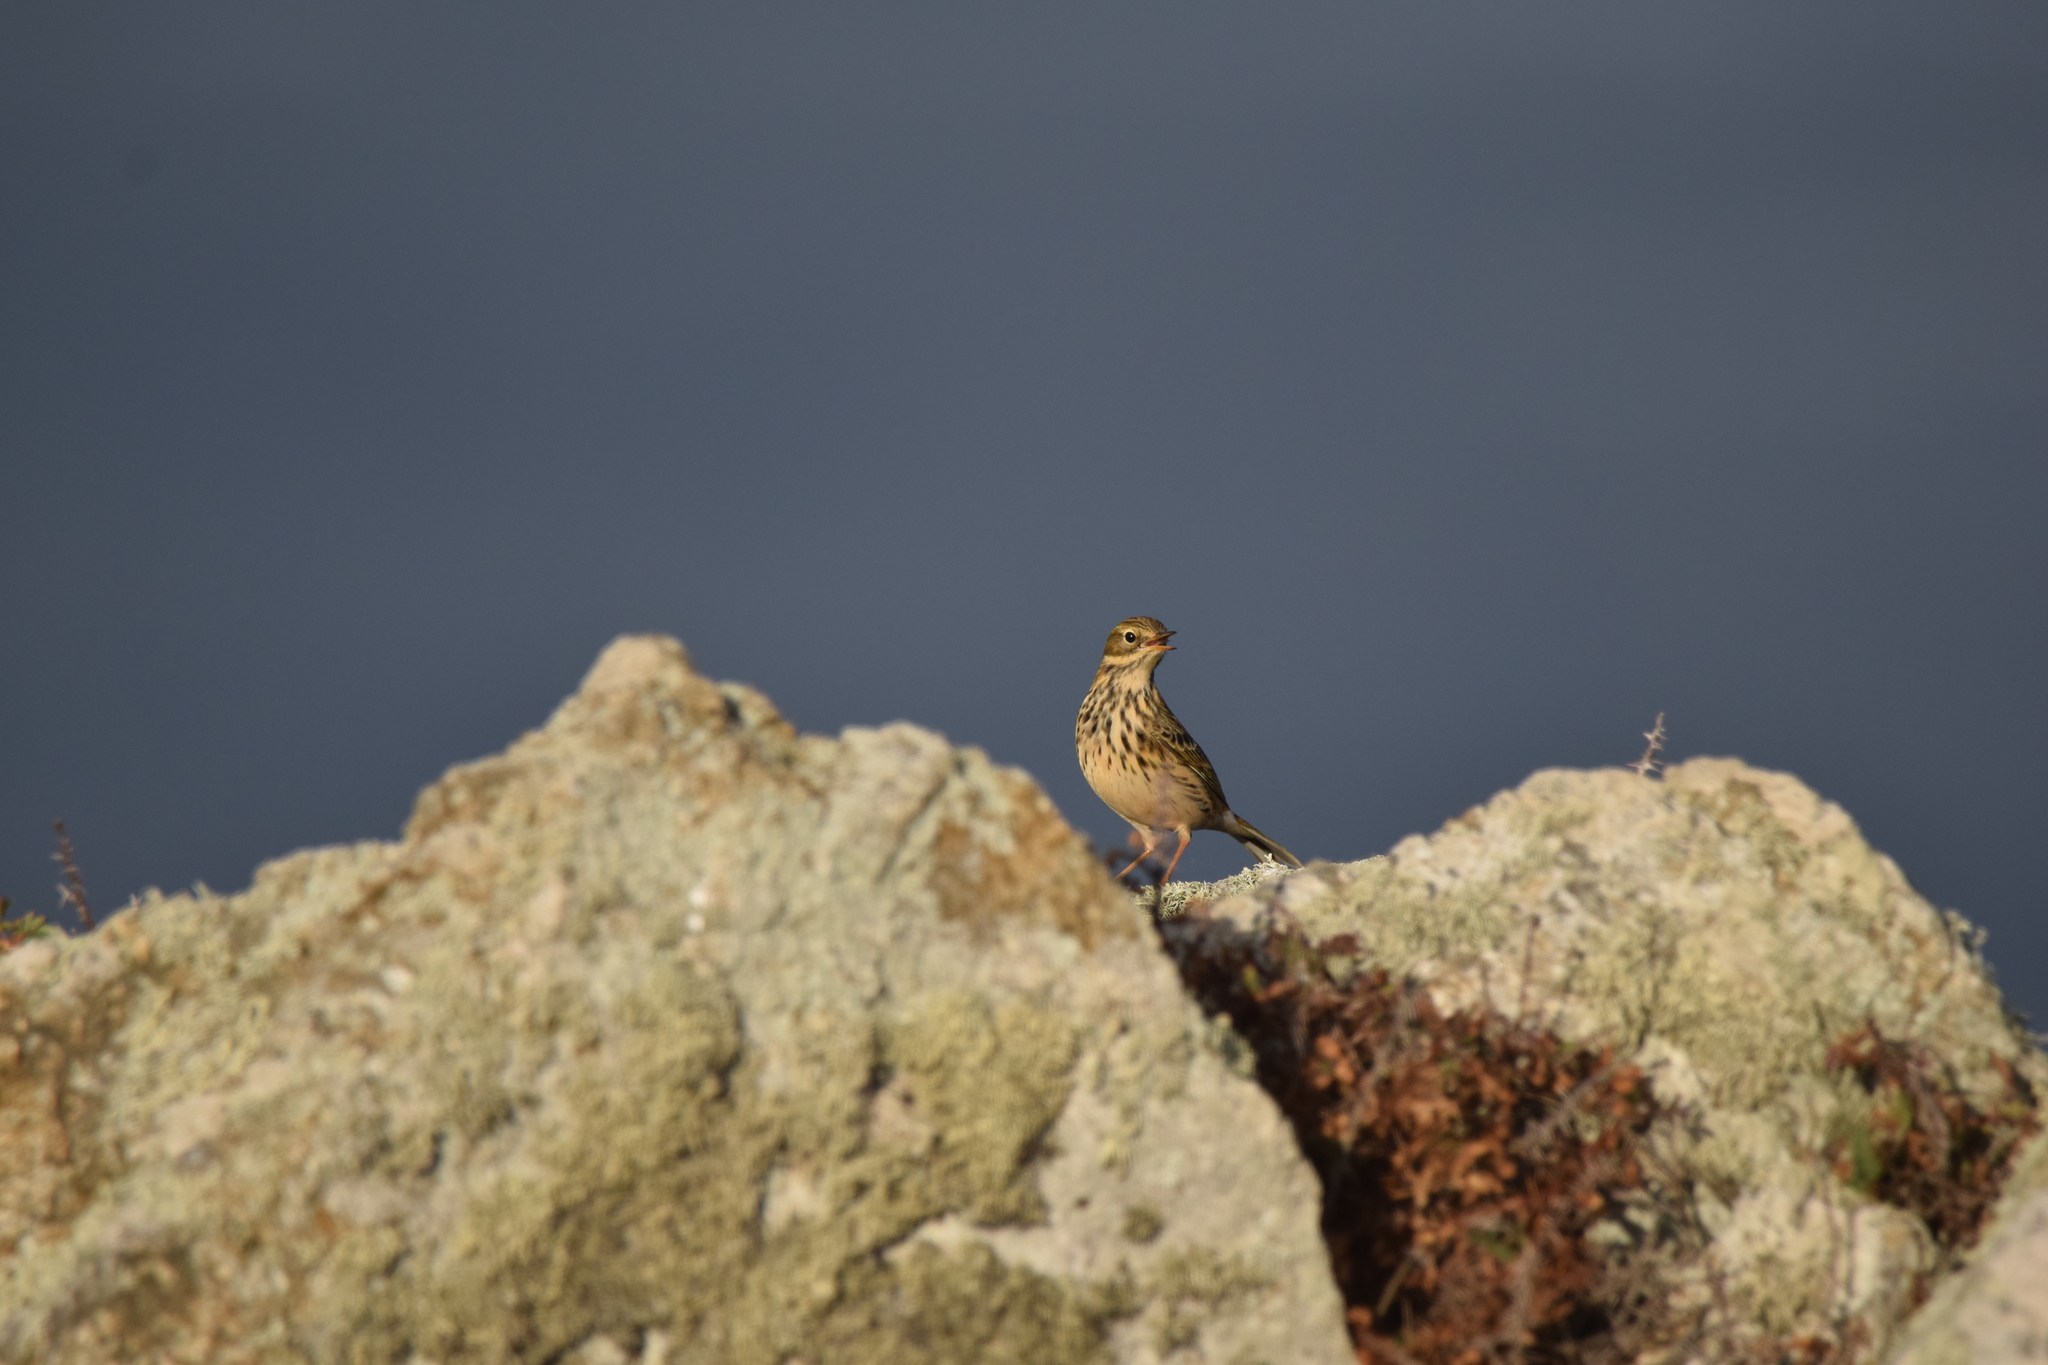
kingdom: Animalia
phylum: Chordata
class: Aves
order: Passeriformes
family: Motacillidae
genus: Anthus
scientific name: Anthus pratensis
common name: Meadow pipit
